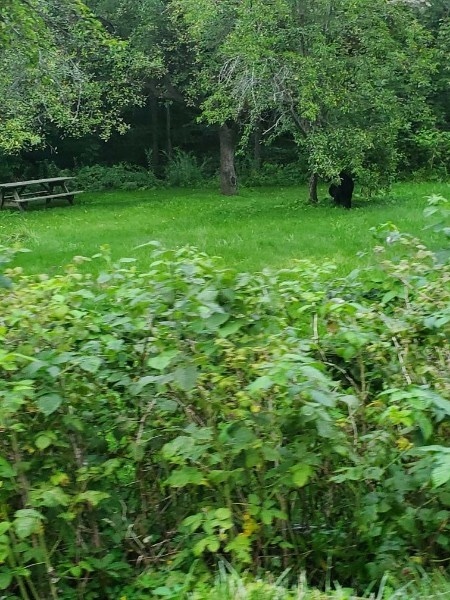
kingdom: Animalia
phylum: Chordata
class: Mammalia
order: Carnivora
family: Ursidae
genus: Ursus
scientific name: Ursus americanus
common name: American black bear
